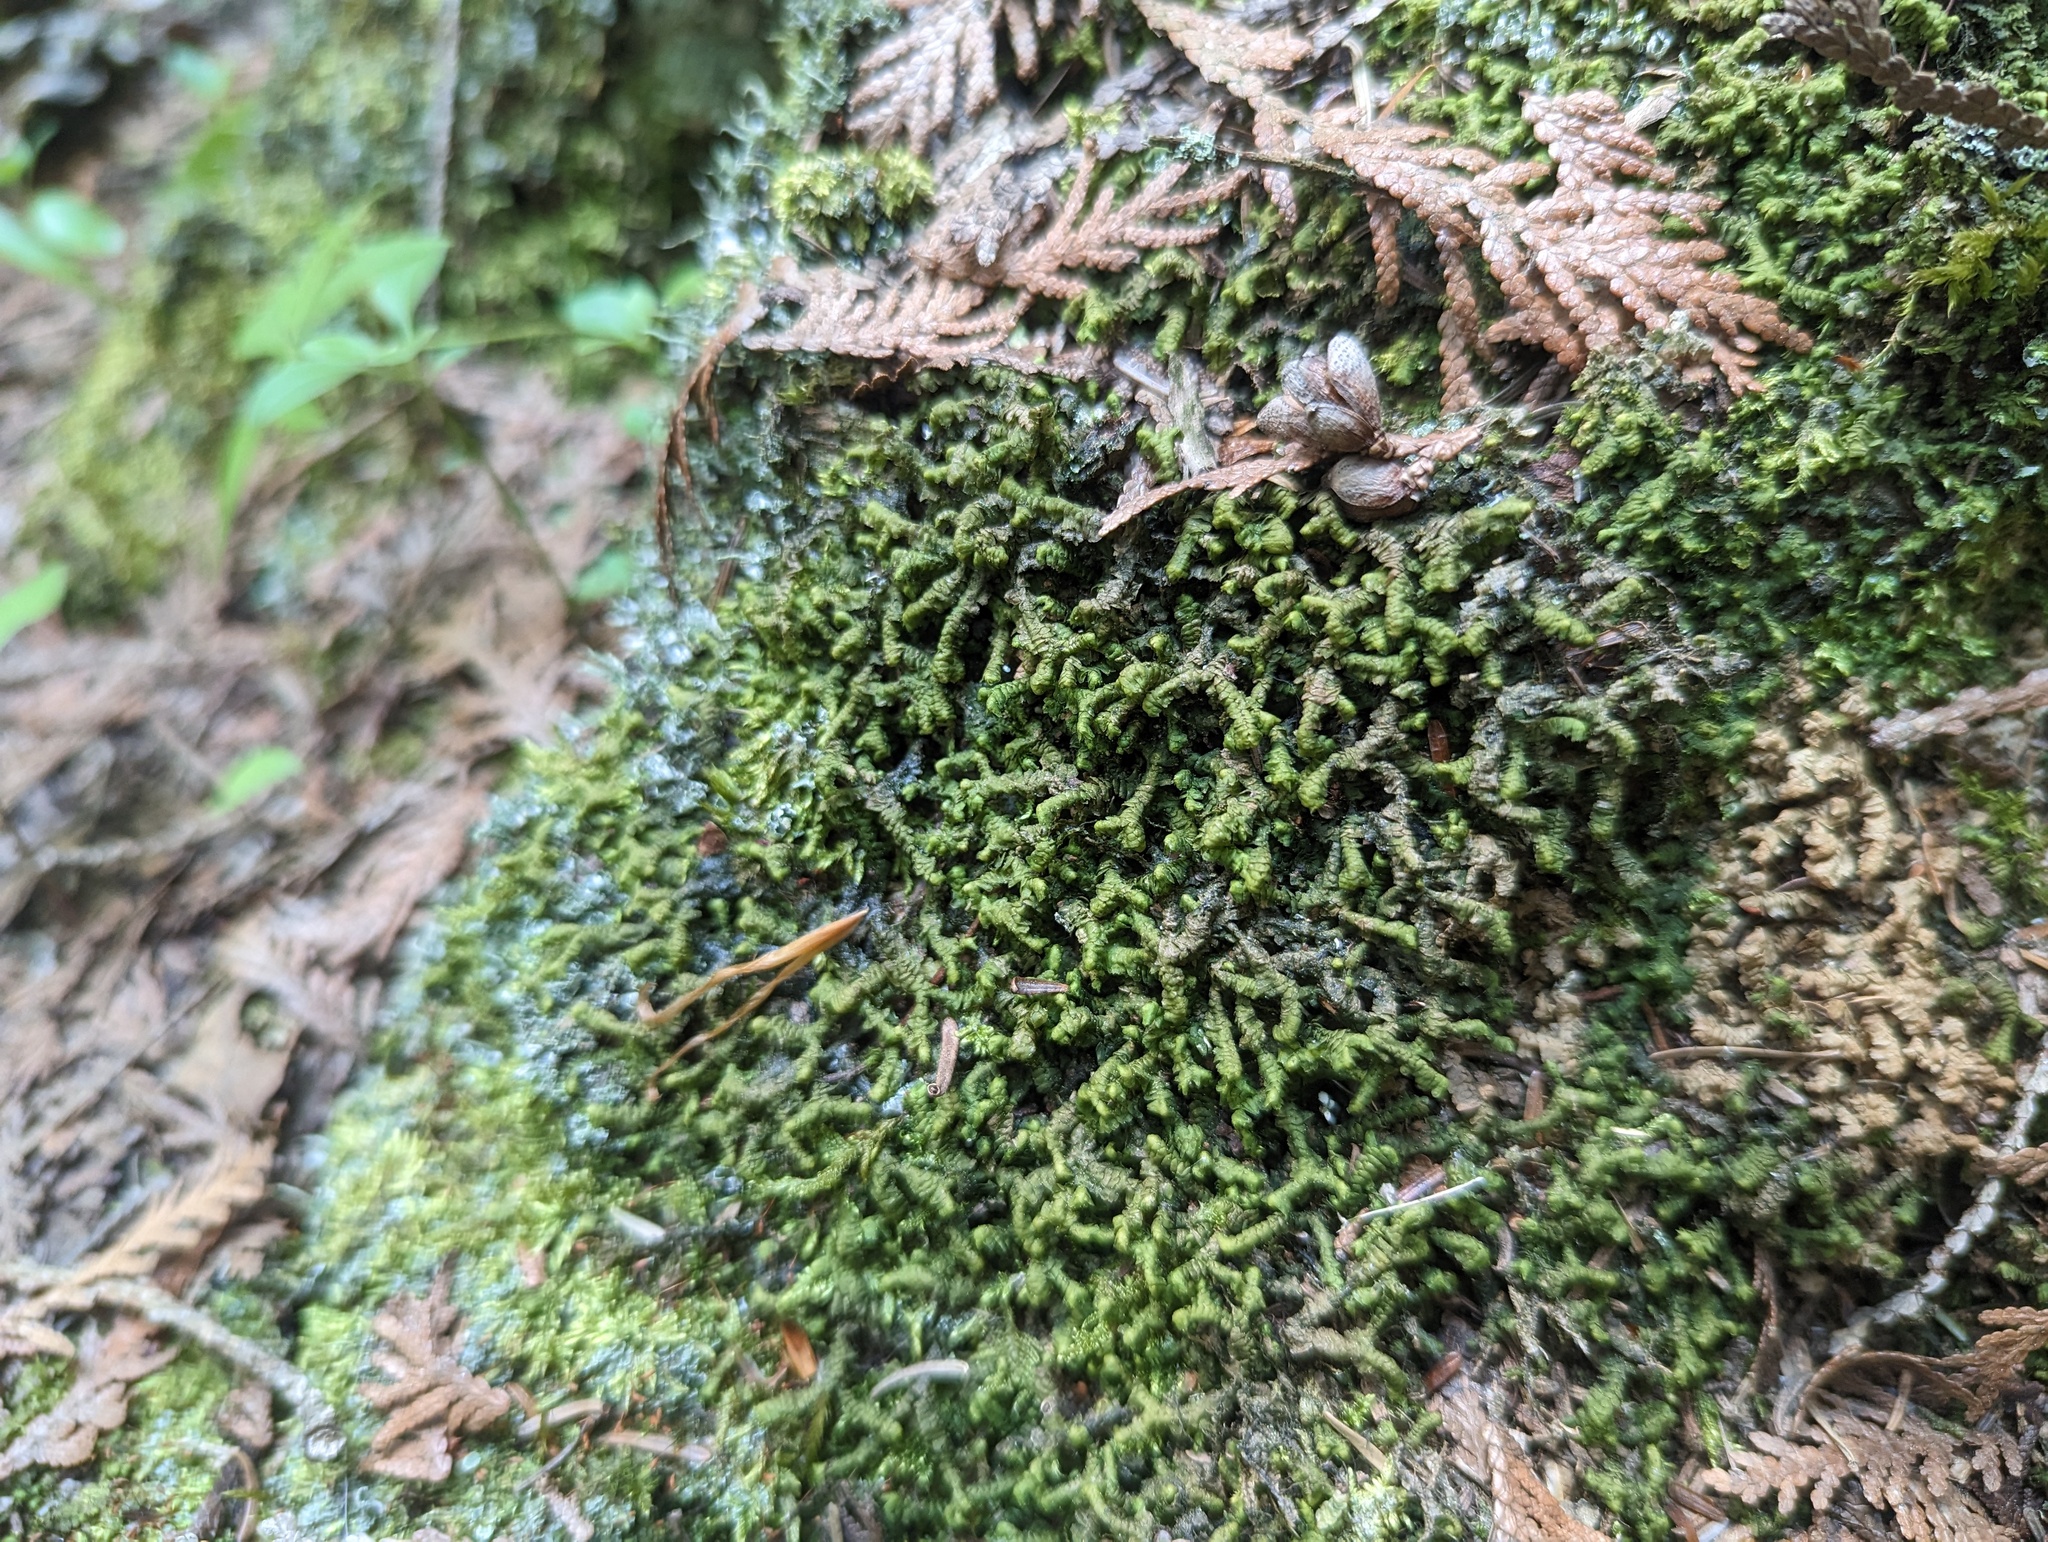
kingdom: Plantae
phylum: Marchantiophyta
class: Jungermanniopsida
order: Jungermanniales
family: Lepidoziaceae
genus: Bazzania
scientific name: Bazzania trilobata
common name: Three-lobed whipwort
